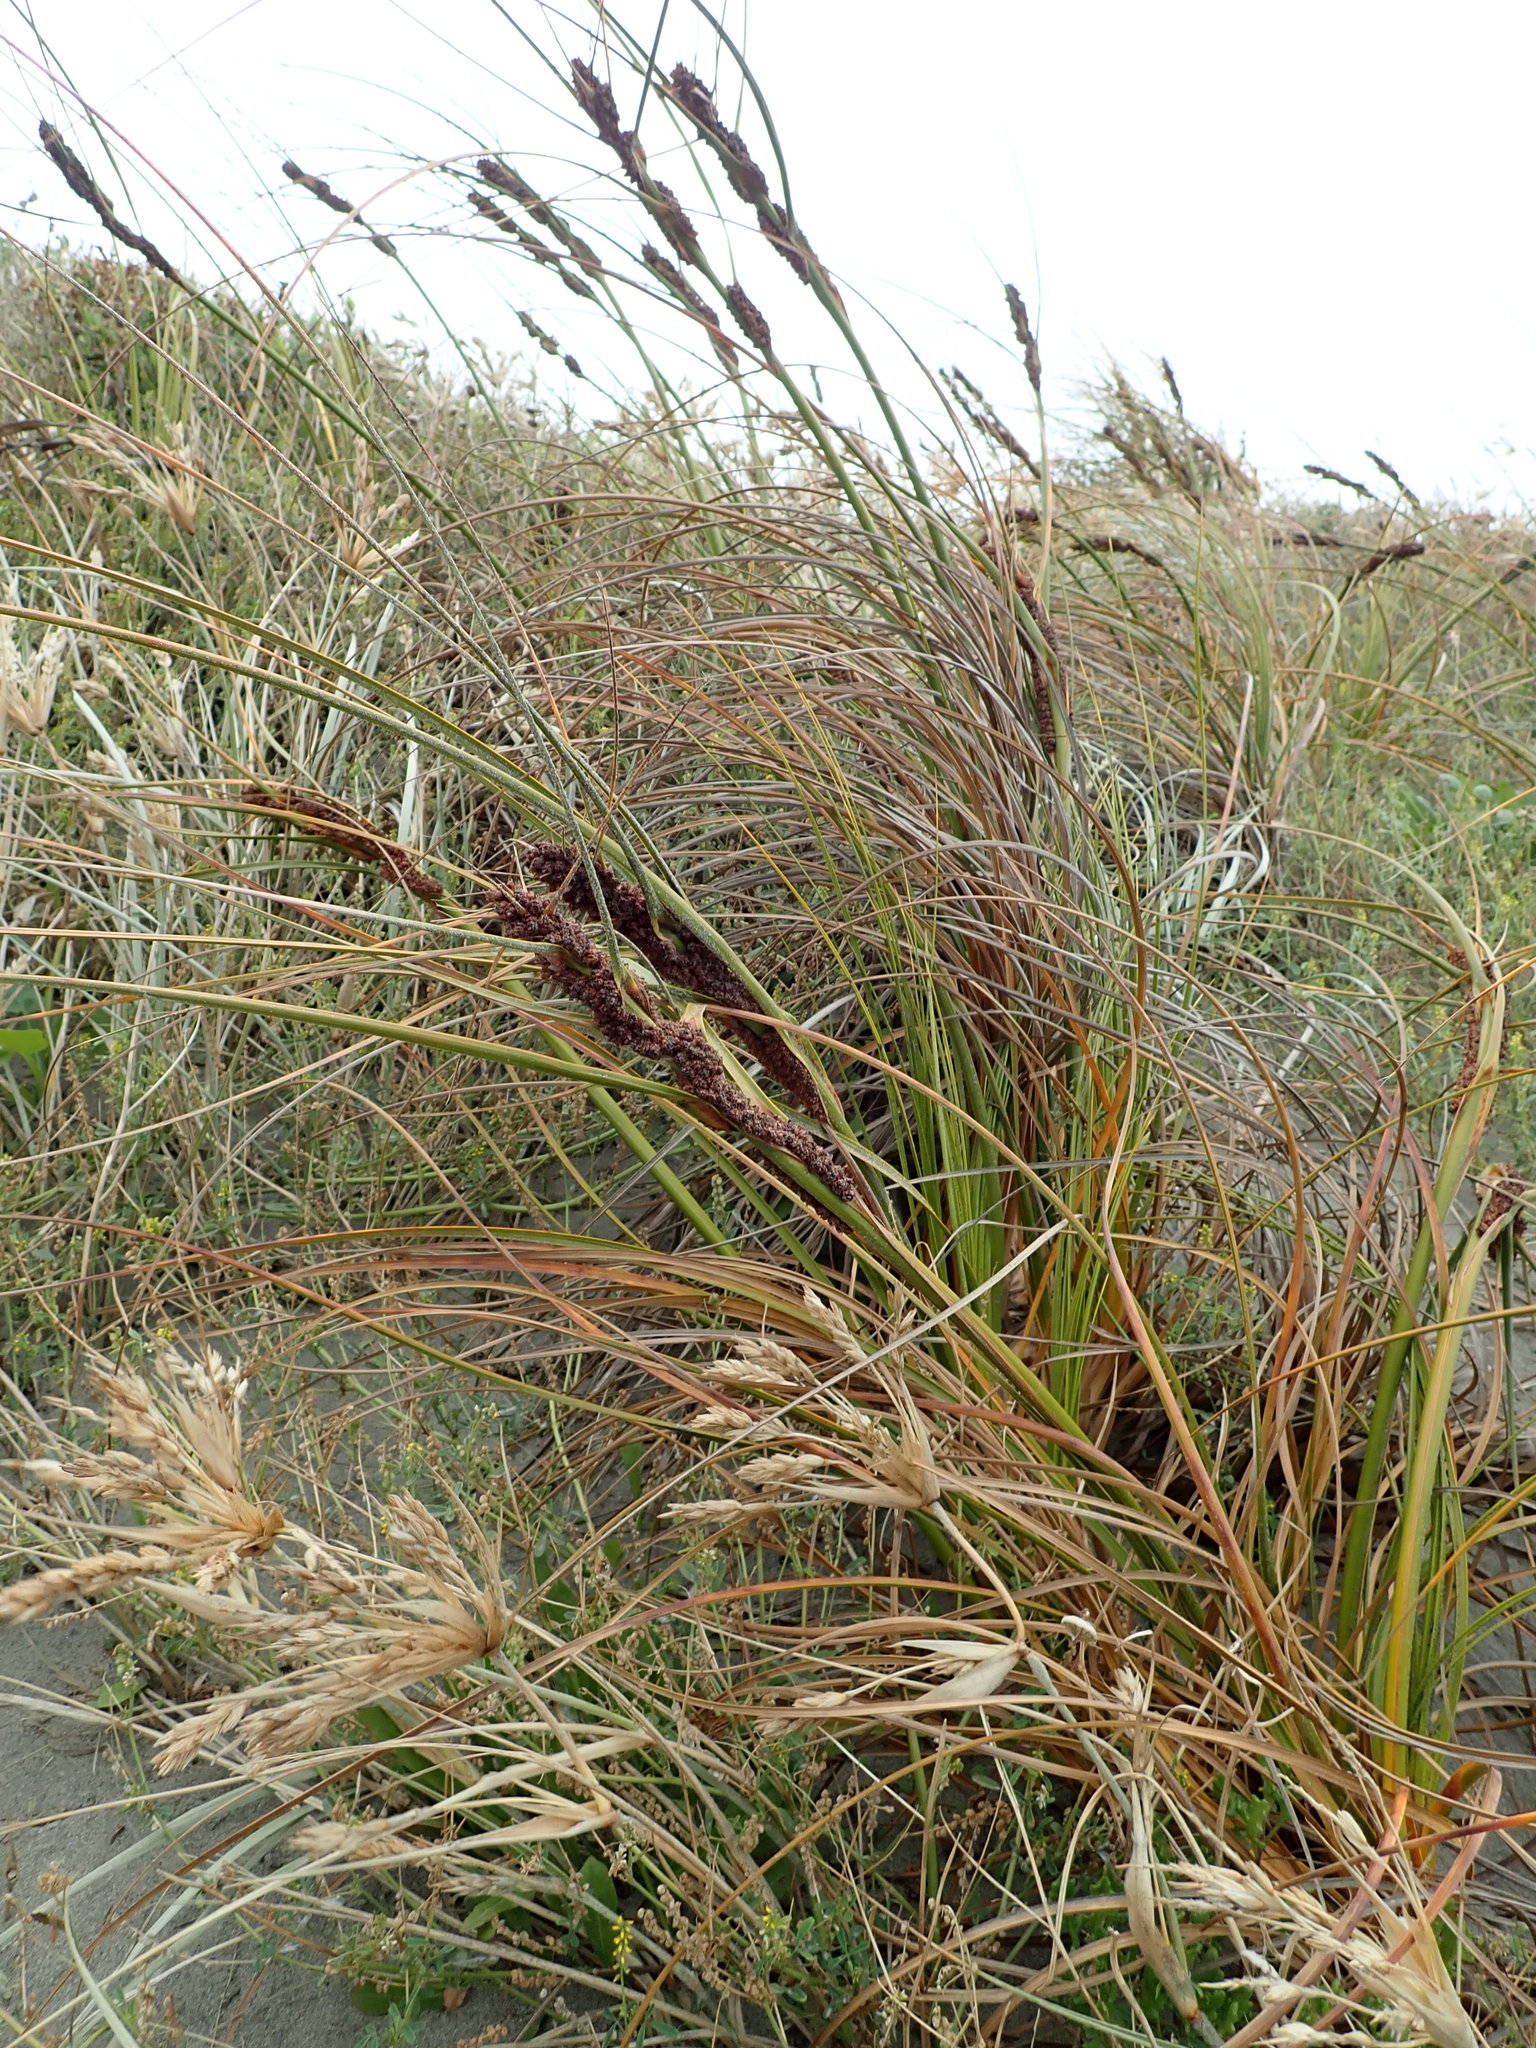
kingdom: Plantae
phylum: Tracheophyta
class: Liliopsida
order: Poales
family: Cyperaceae
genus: Ficinia
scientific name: Ficinia spiralis
